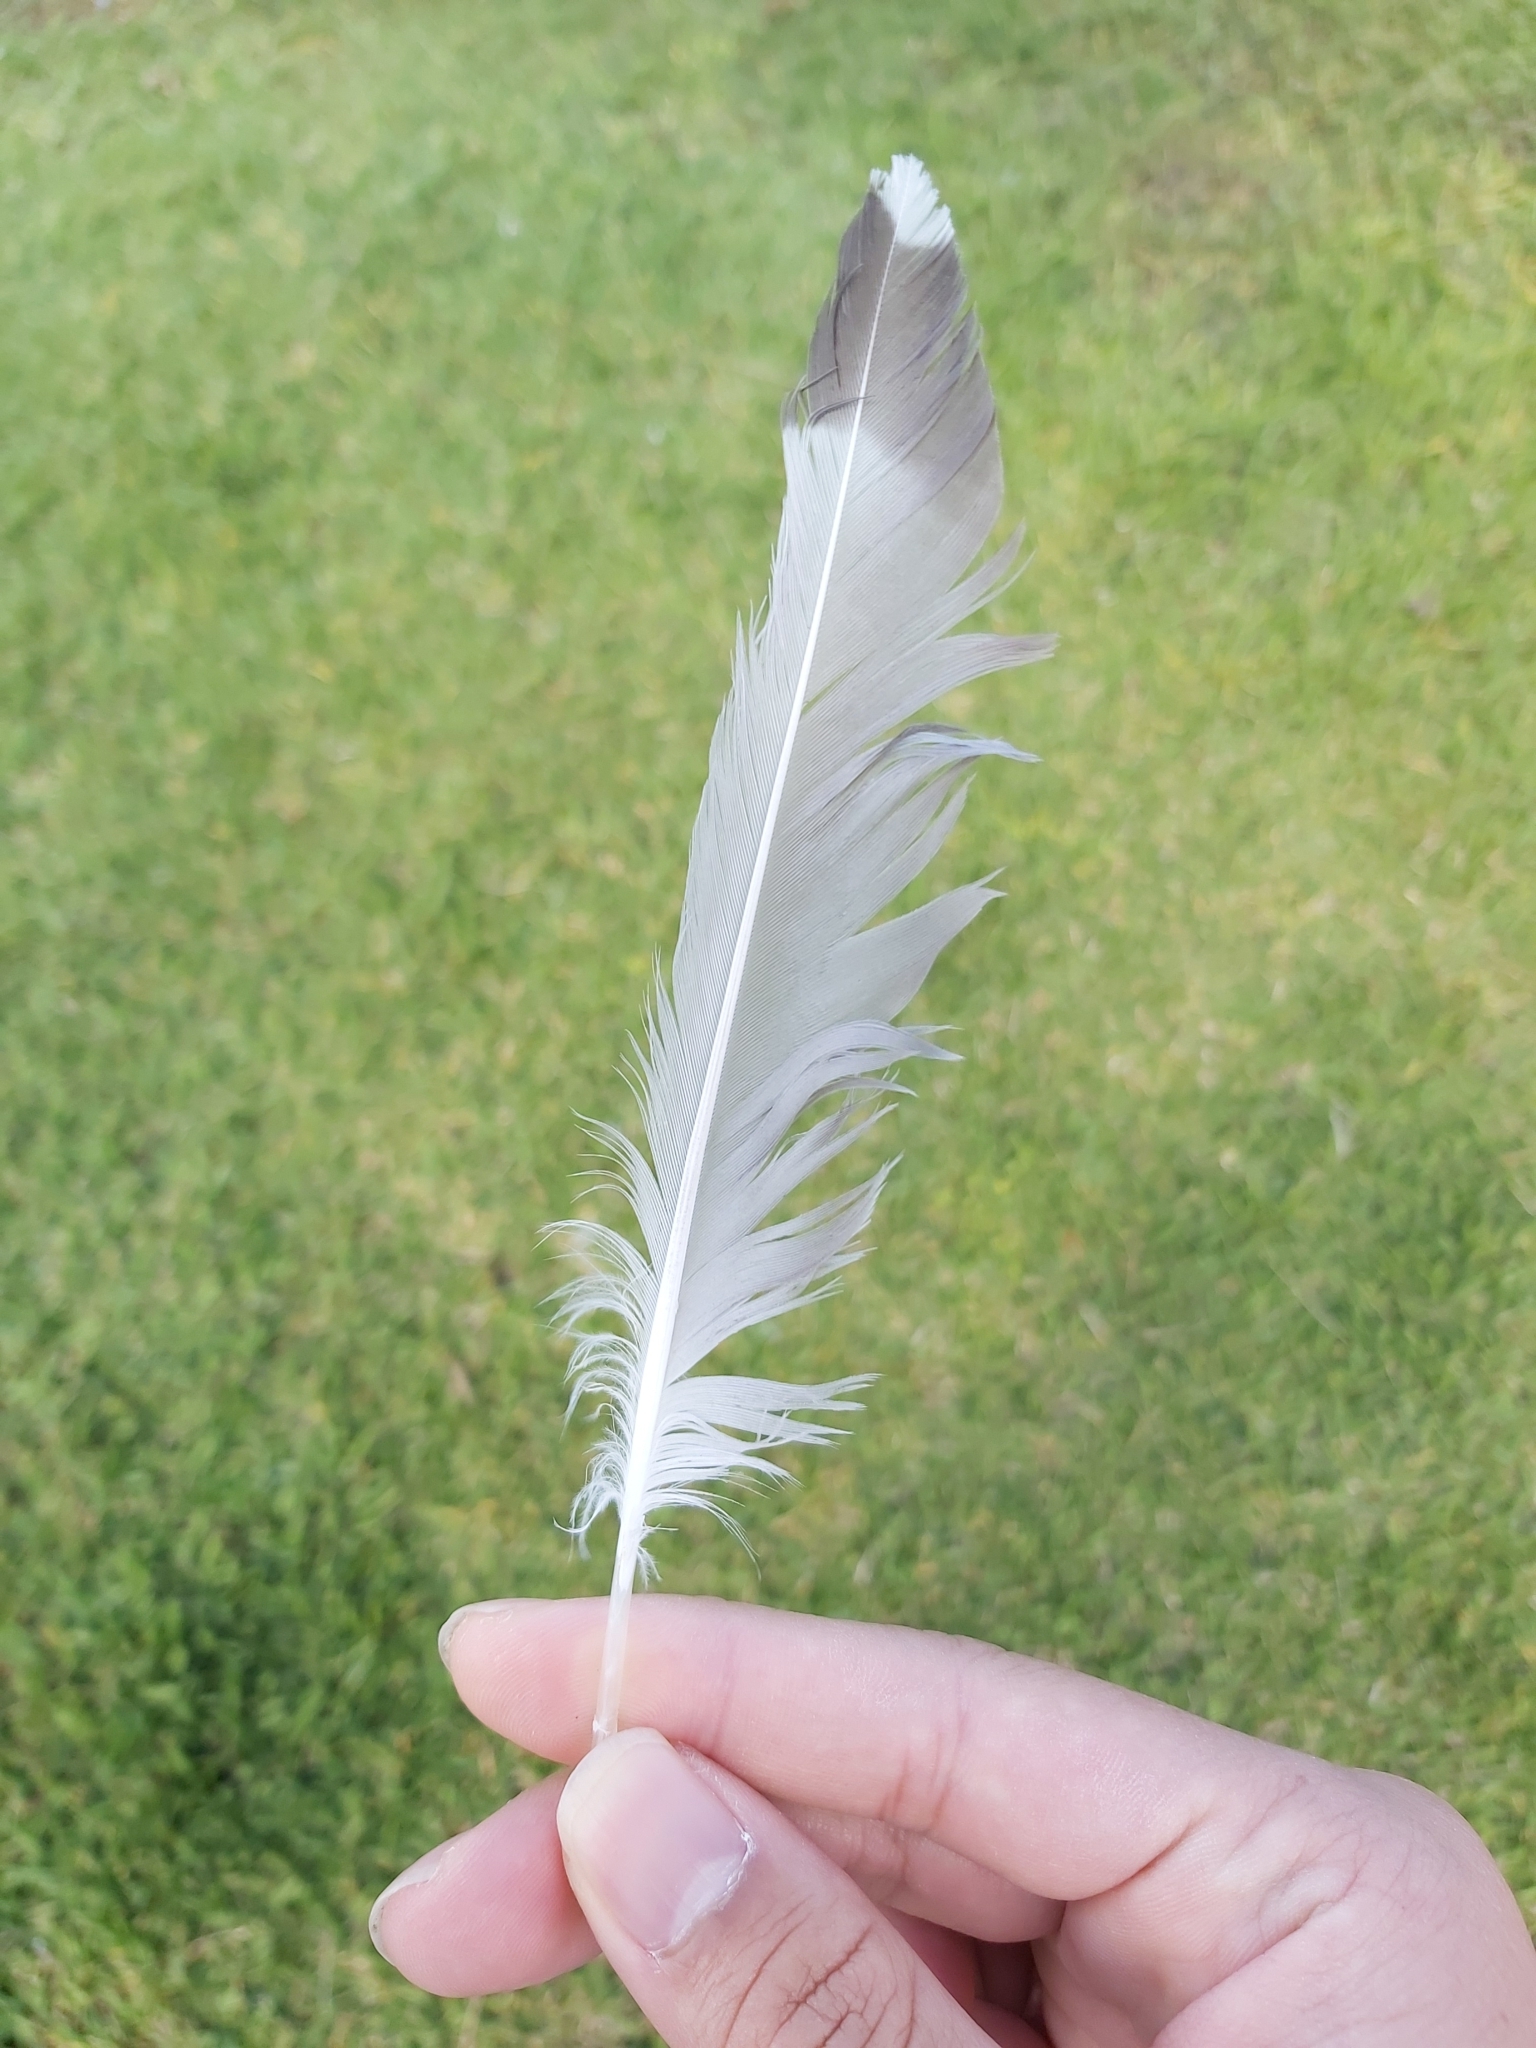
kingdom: Animalia
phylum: Chordata
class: Aves
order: Charadriiformes
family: Laridae
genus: Chroicocephalus
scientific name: Chroicocephalus novaehollandiae
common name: Silver gull
